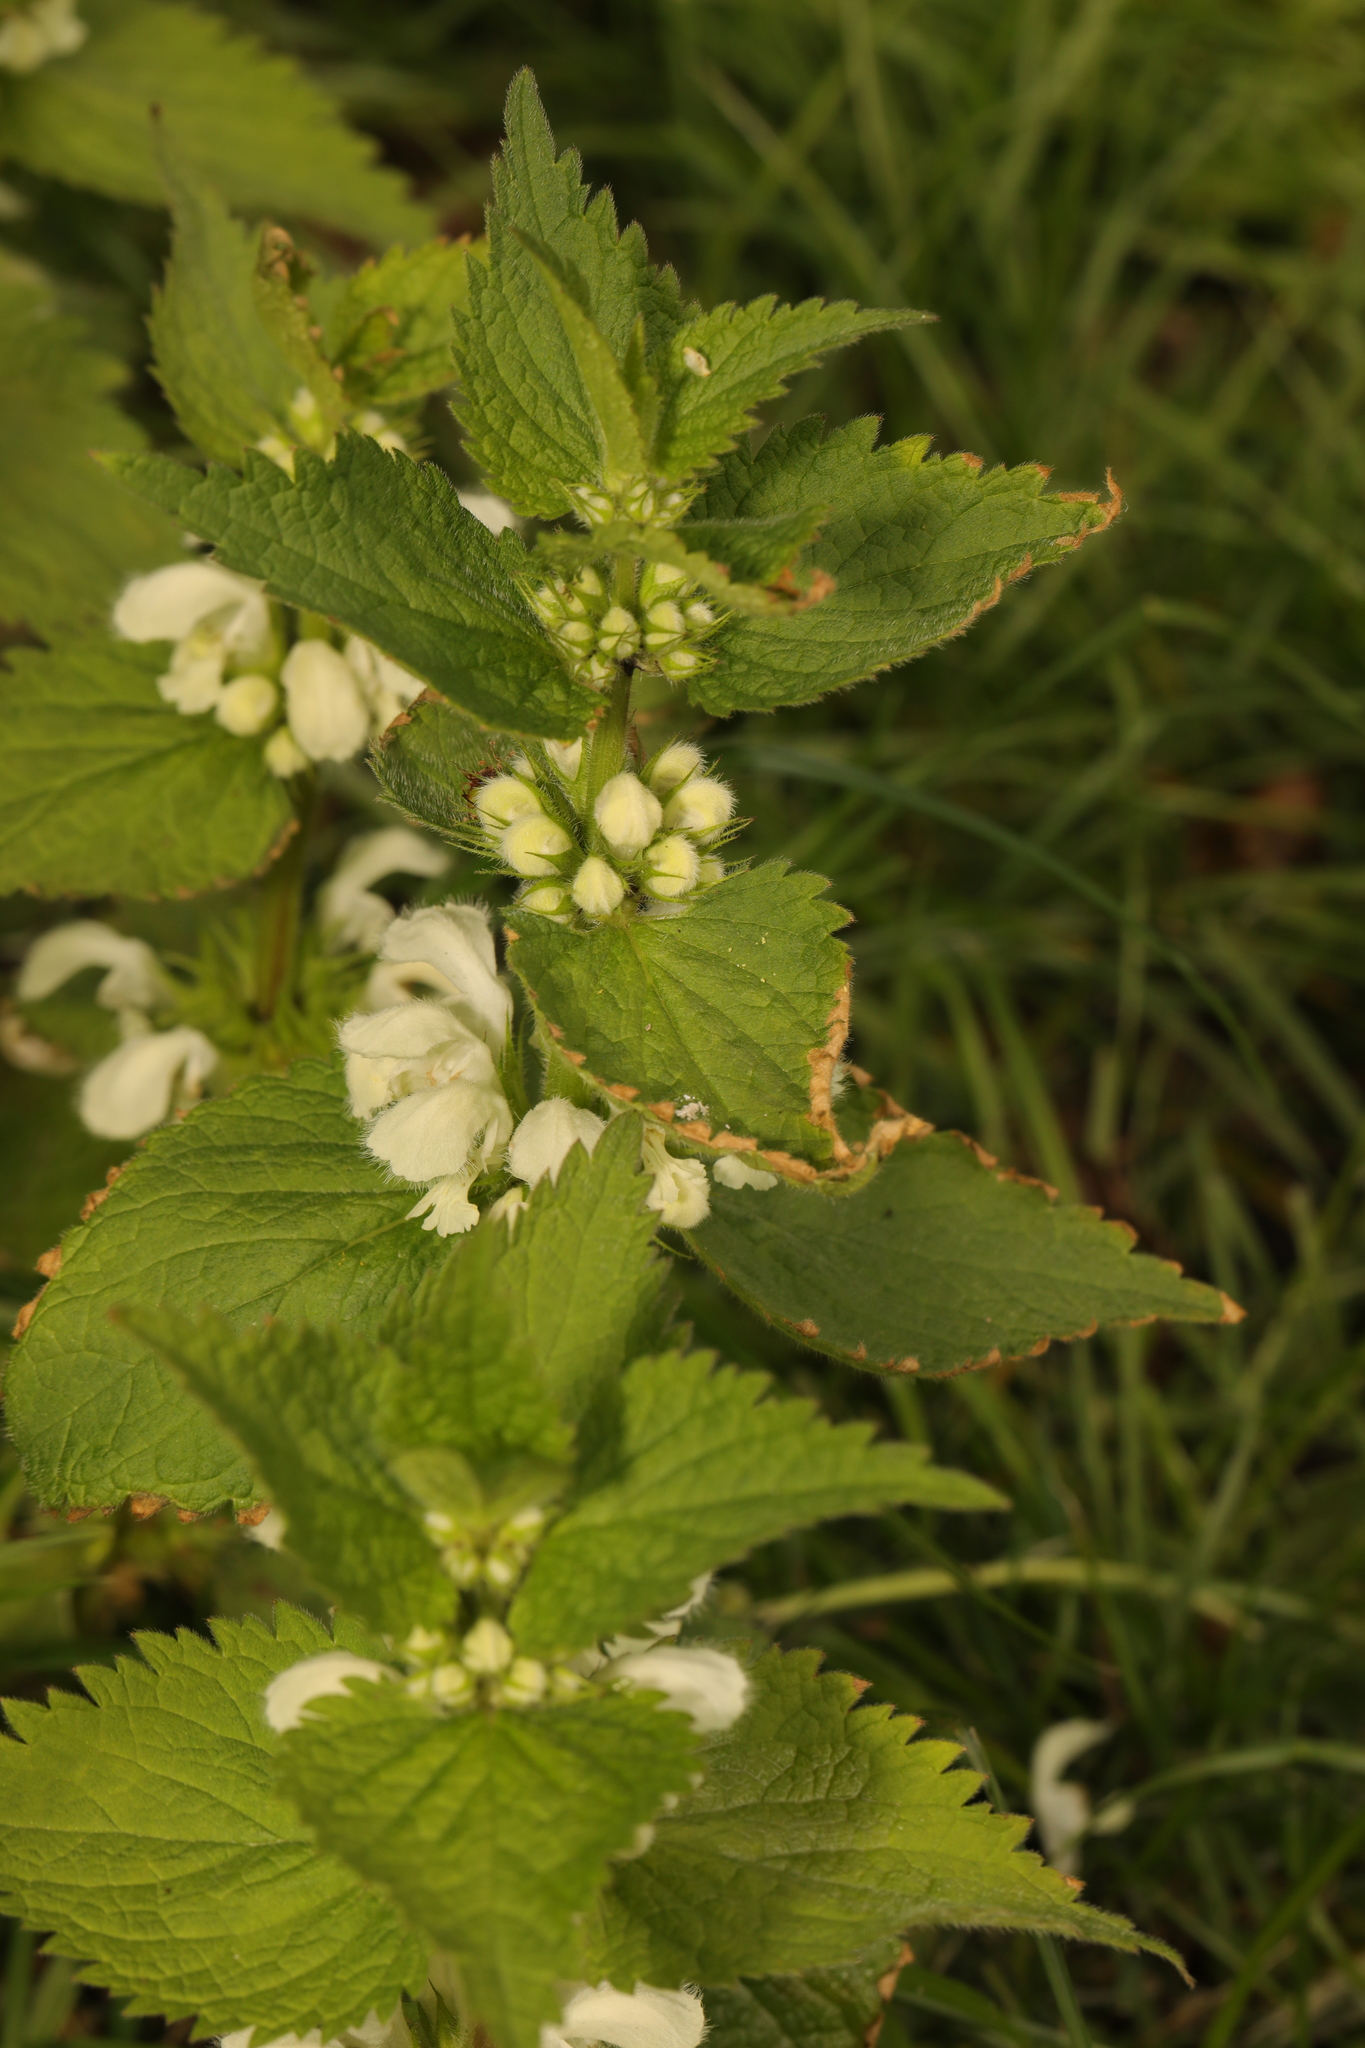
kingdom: Plantae
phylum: Tracheophyta
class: Magnoliopsida
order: Lamiales
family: Lamiaceae
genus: Lamium
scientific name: Lamium album
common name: White dead-nettle
